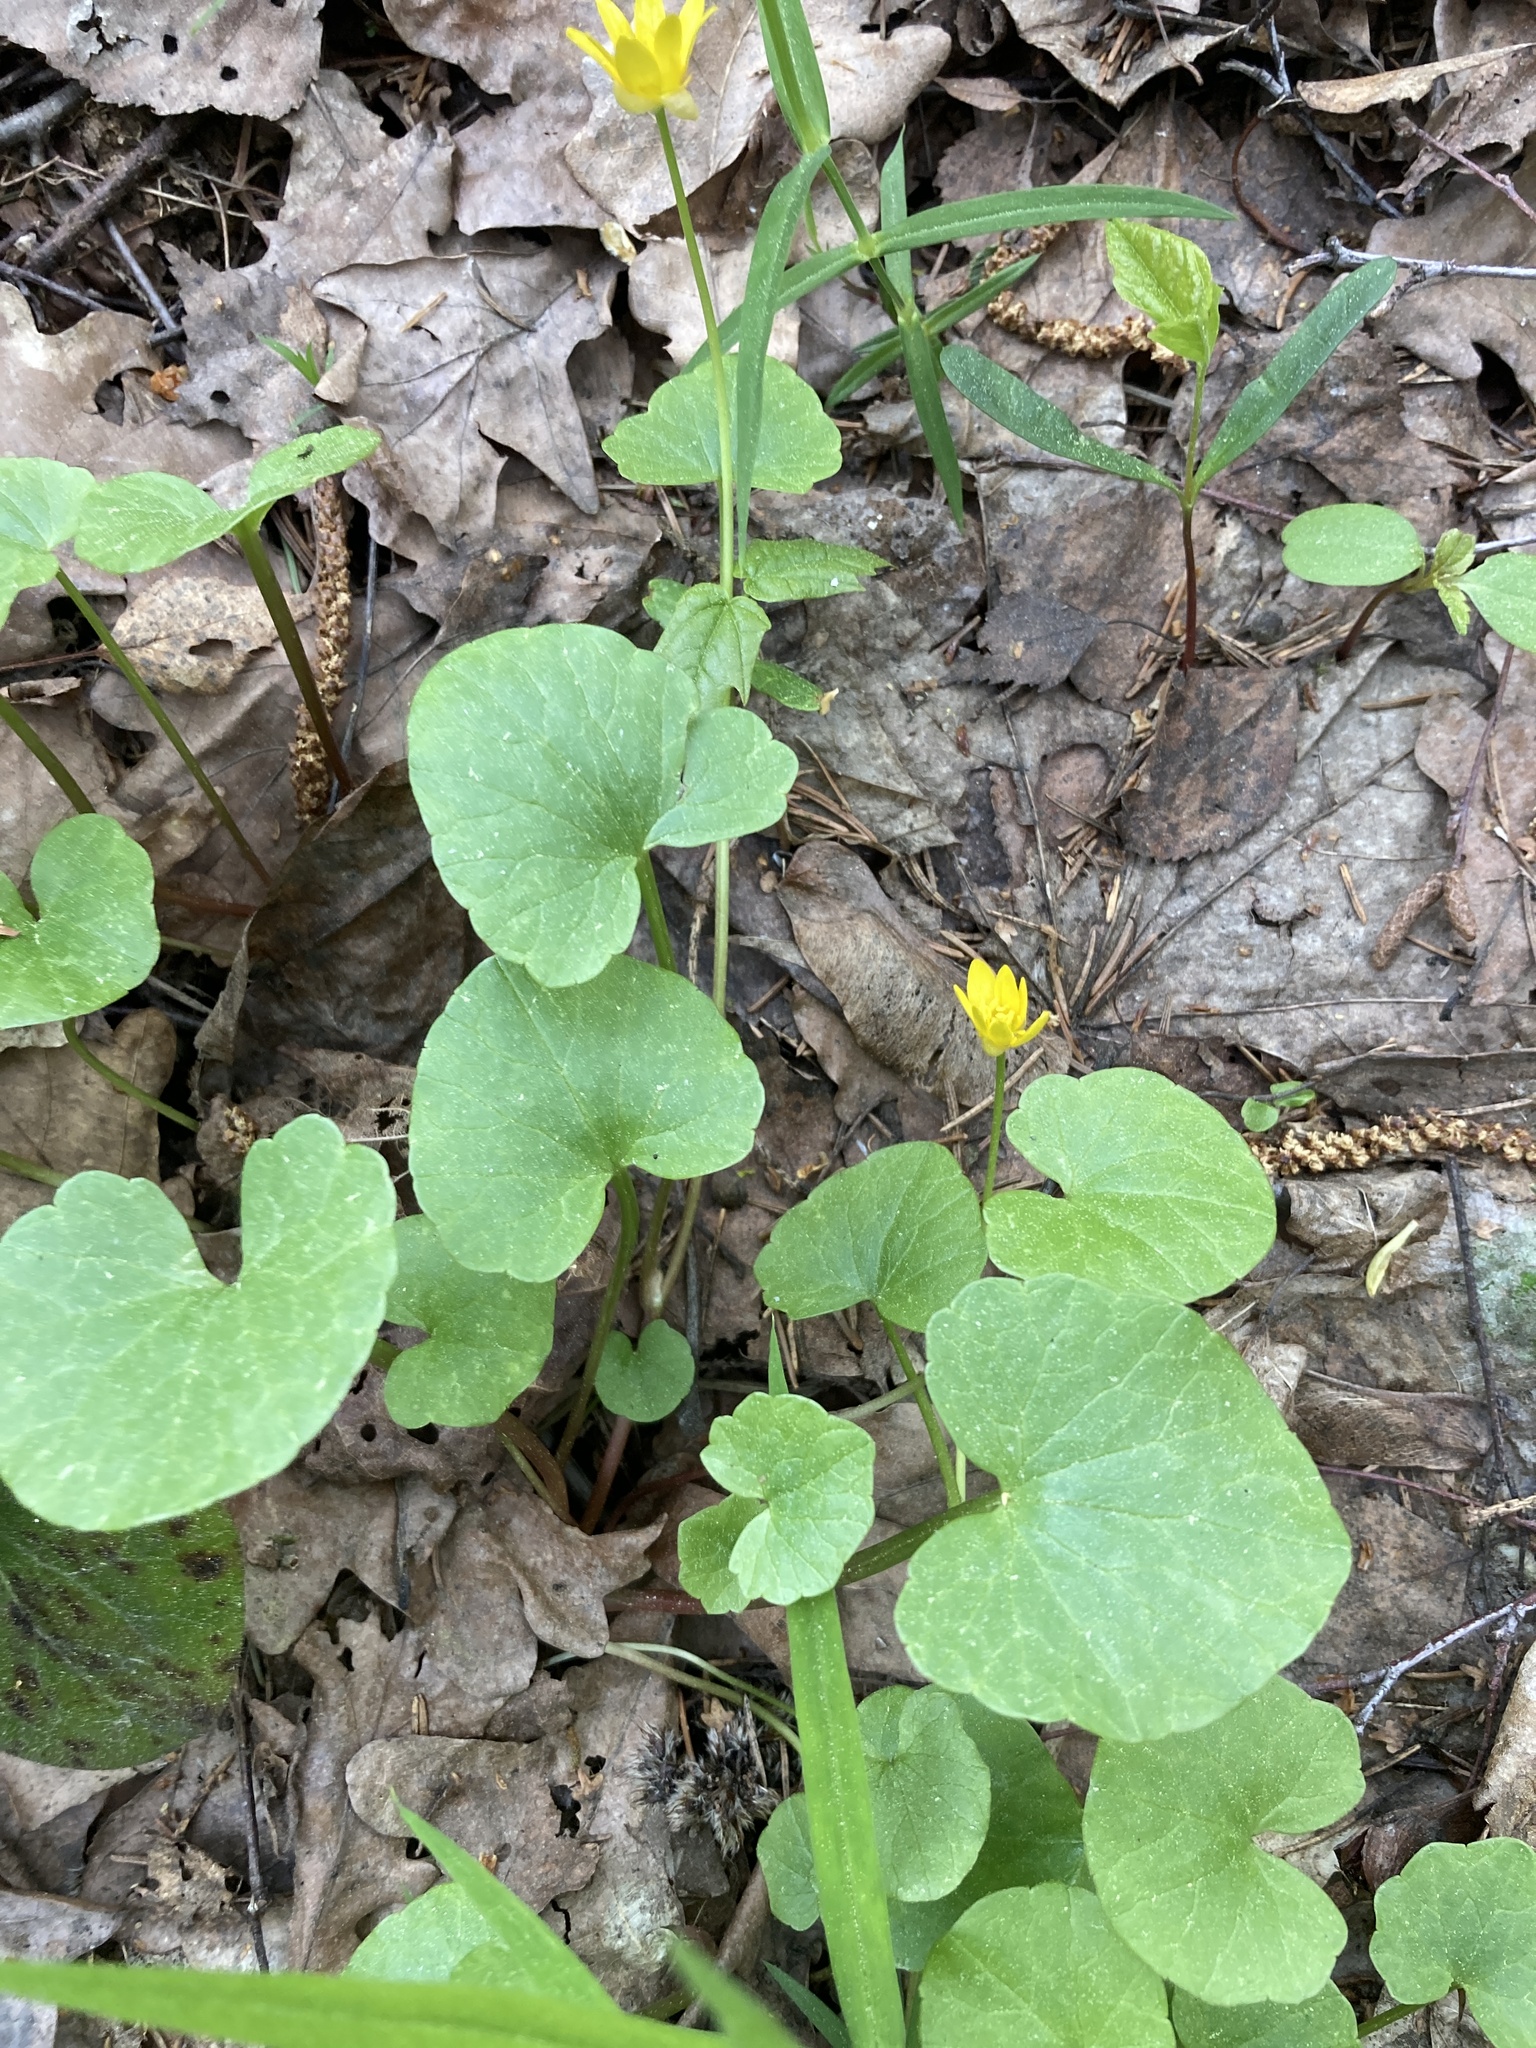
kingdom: Plantae
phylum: Tracheophyta
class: Magnoliopsida
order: Ranunculales
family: Ranunculaceae
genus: Ficaria
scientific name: Ficaria verna
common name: Lesser celandine
